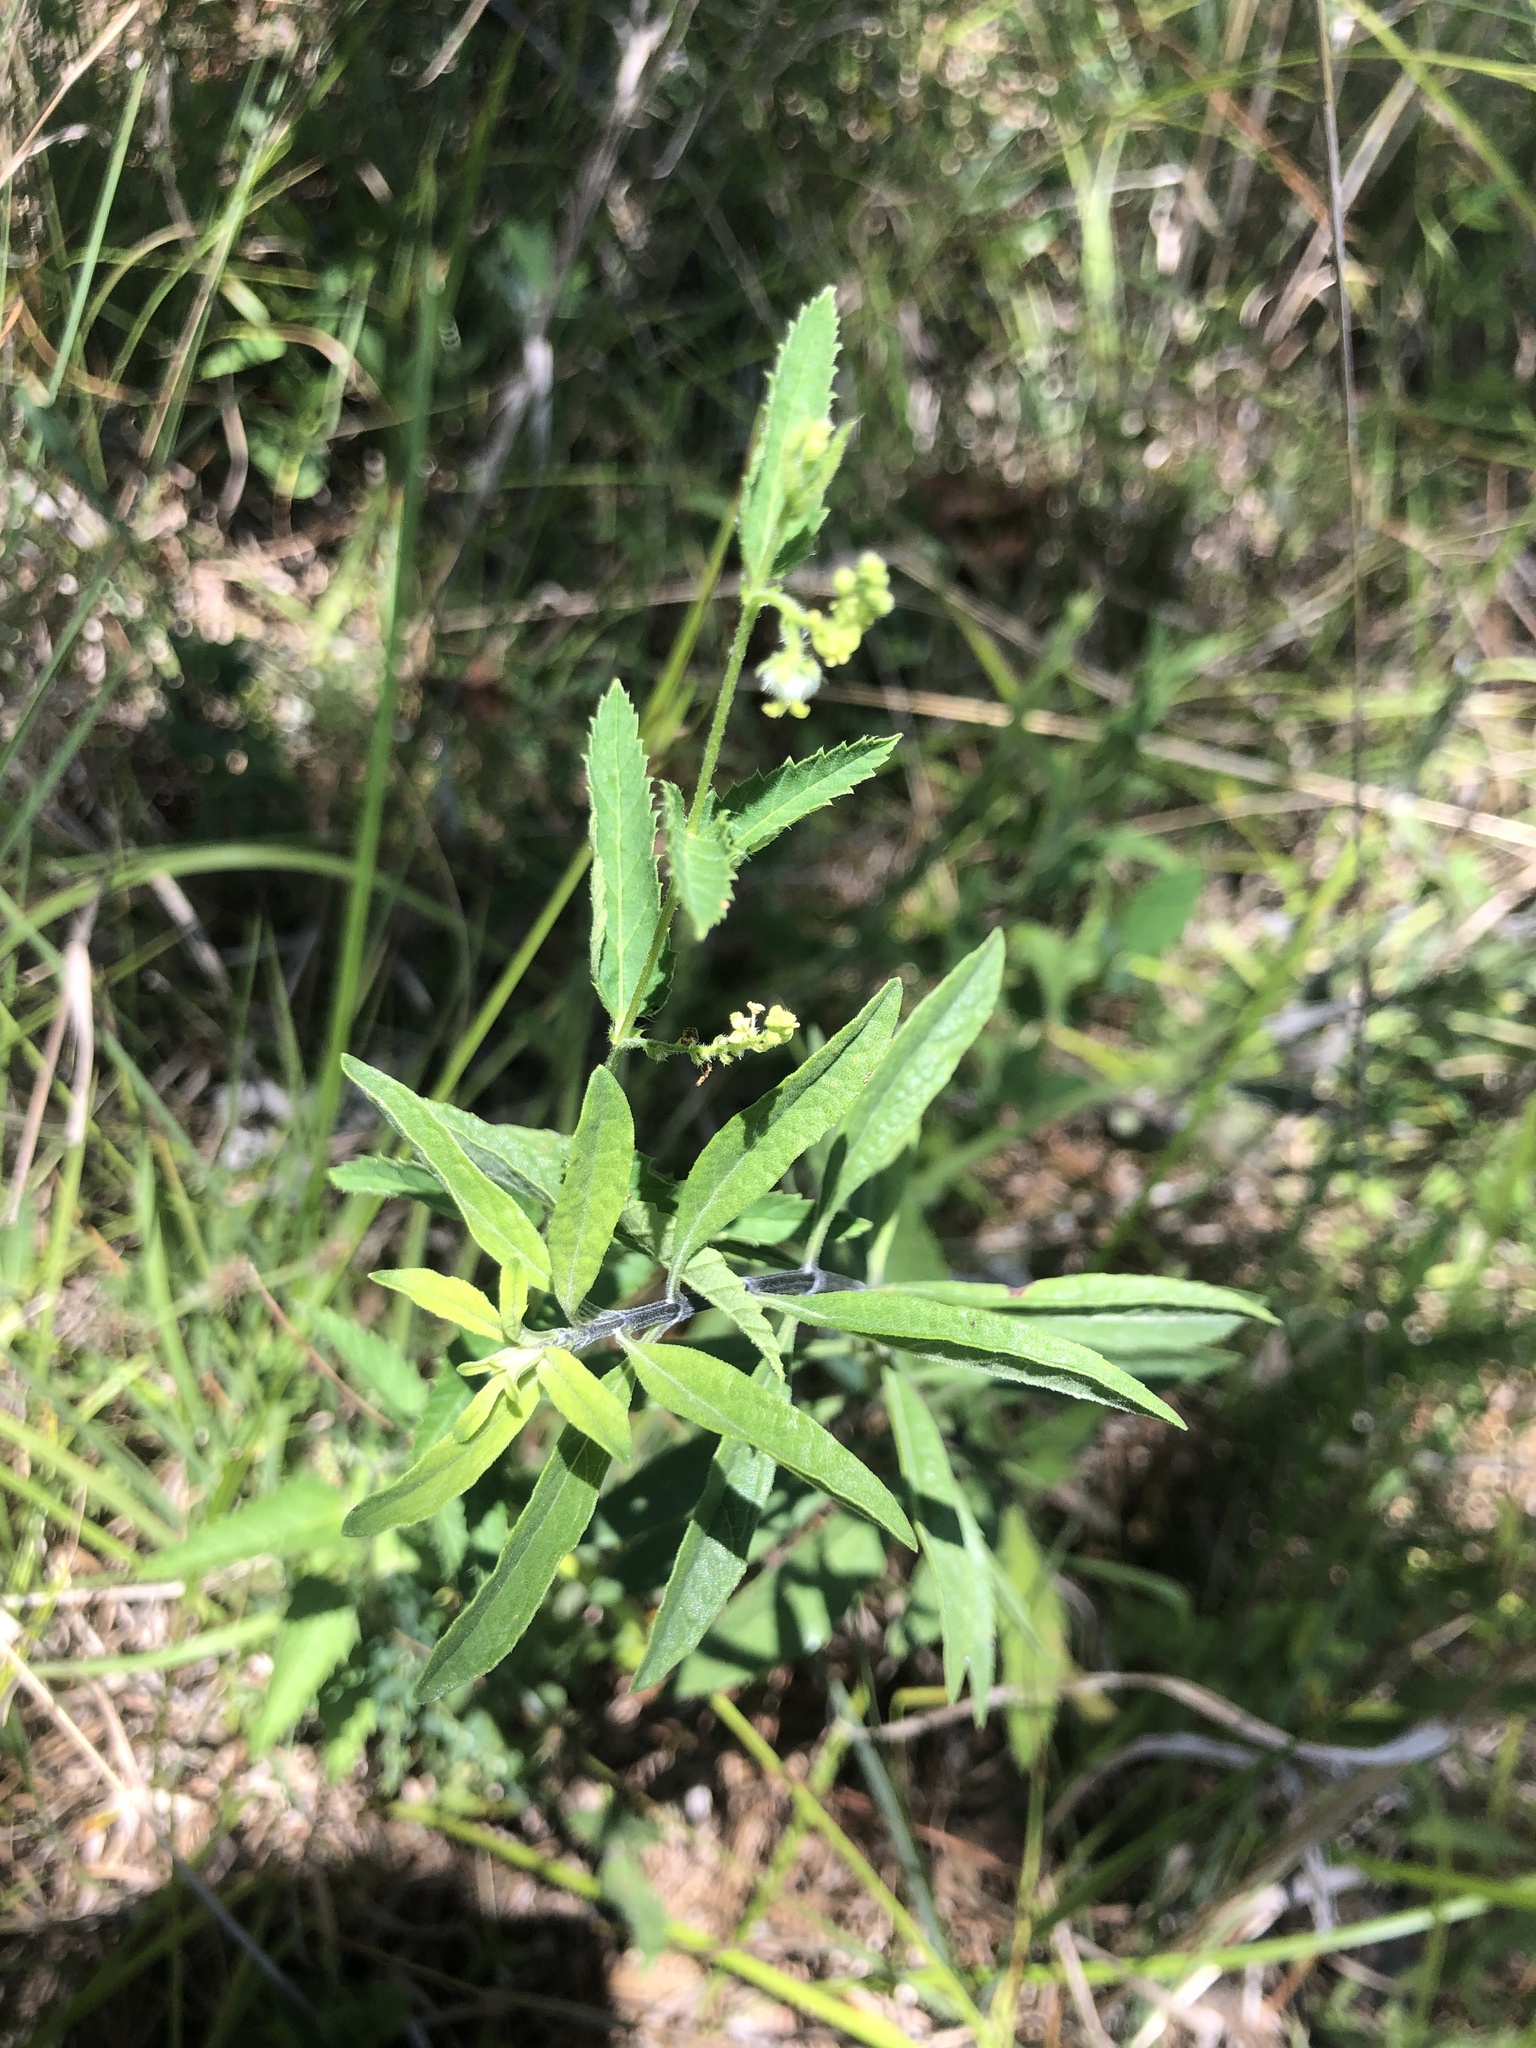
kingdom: Plantae
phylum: Tracheophyta
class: Magnoliopsida
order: Lamiales
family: Lamiaceae
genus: Salvia
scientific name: Salvia azurea
